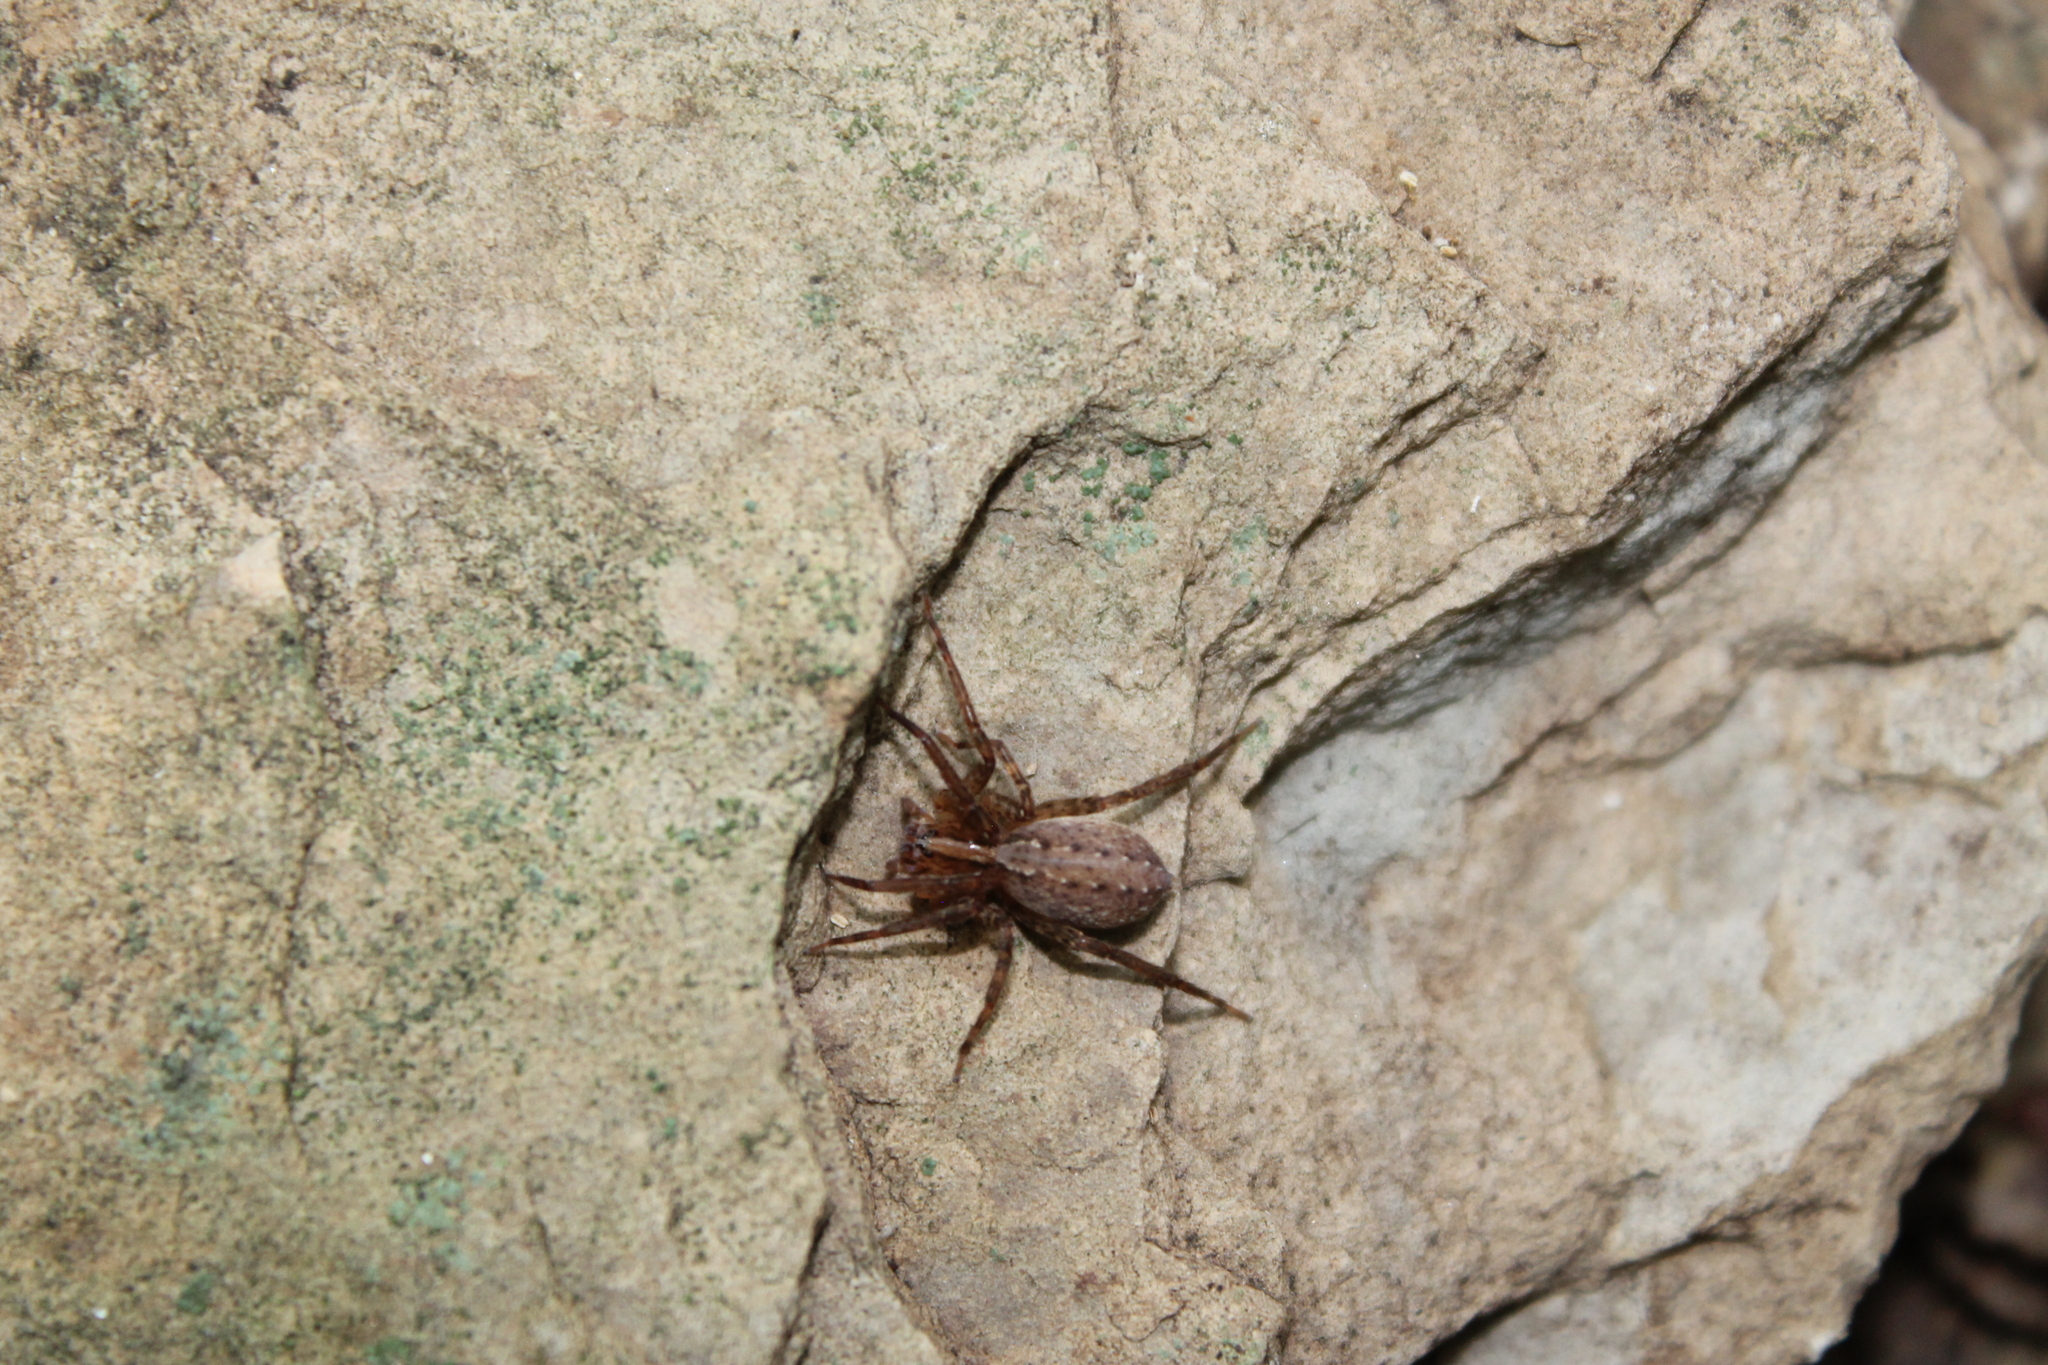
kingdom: Animalia
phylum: Arthropoda
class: Arachnida
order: Araneae
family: Ctenidae
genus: Anahita
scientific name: Anahita punctulata
